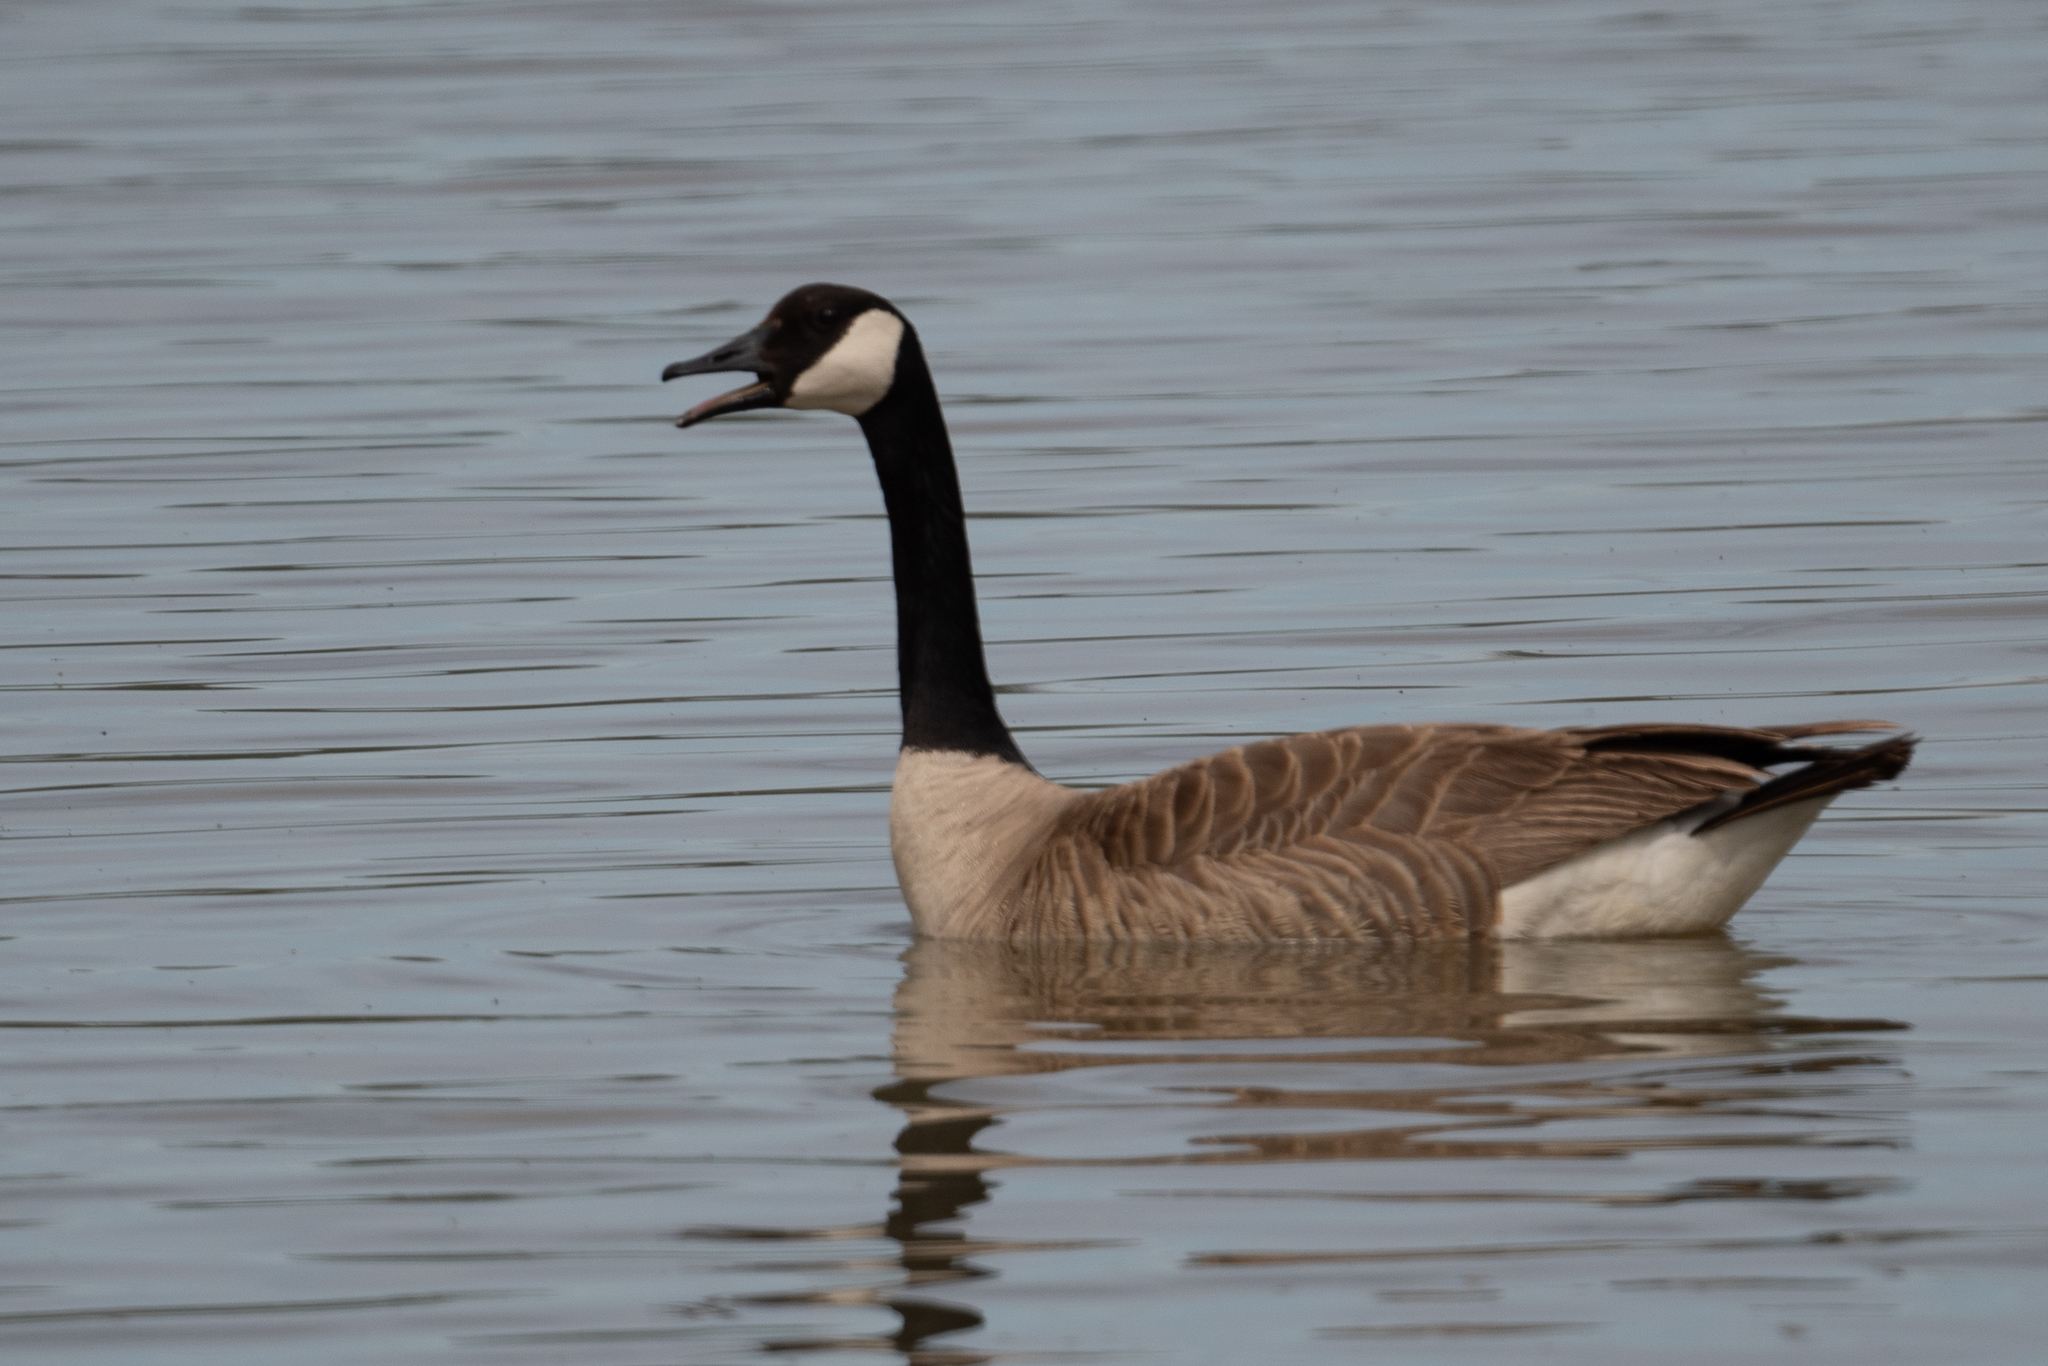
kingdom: Animalia
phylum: Chordata
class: Aves
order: Anseriformes
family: Anatidae
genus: Branta
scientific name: Branta canadensis
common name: Canada goose
